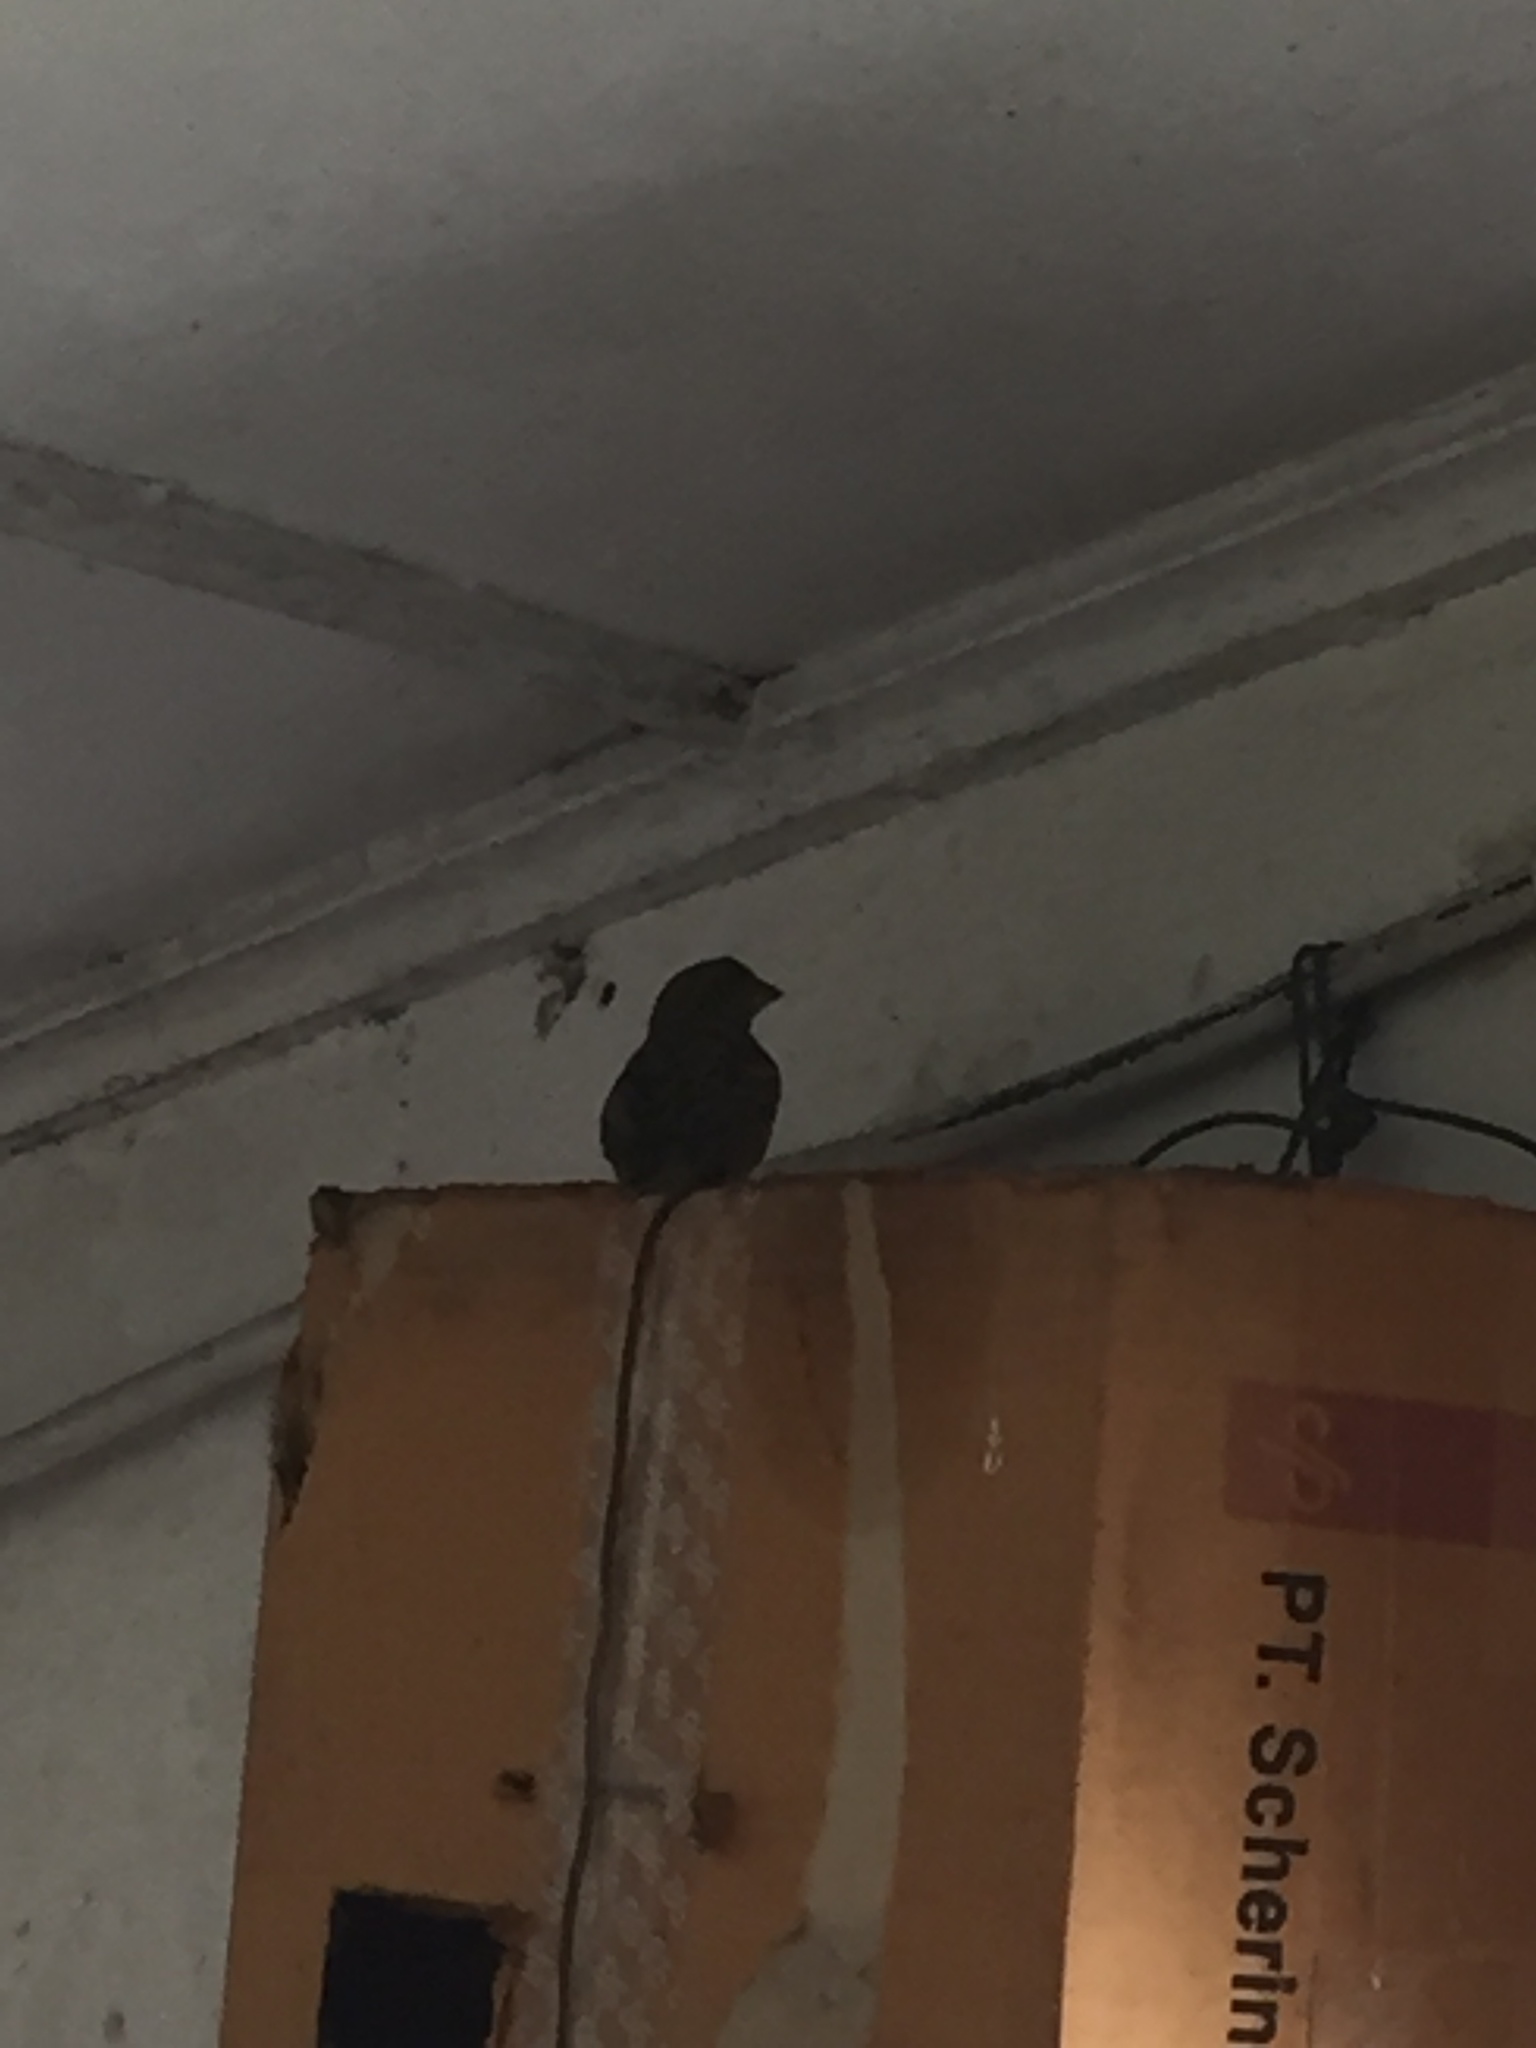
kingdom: Animalia
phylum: Chordata
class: Aves
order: Passeriformes
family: Passeridae
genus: Passer
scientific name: Passer domesticus
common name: House sparrow
